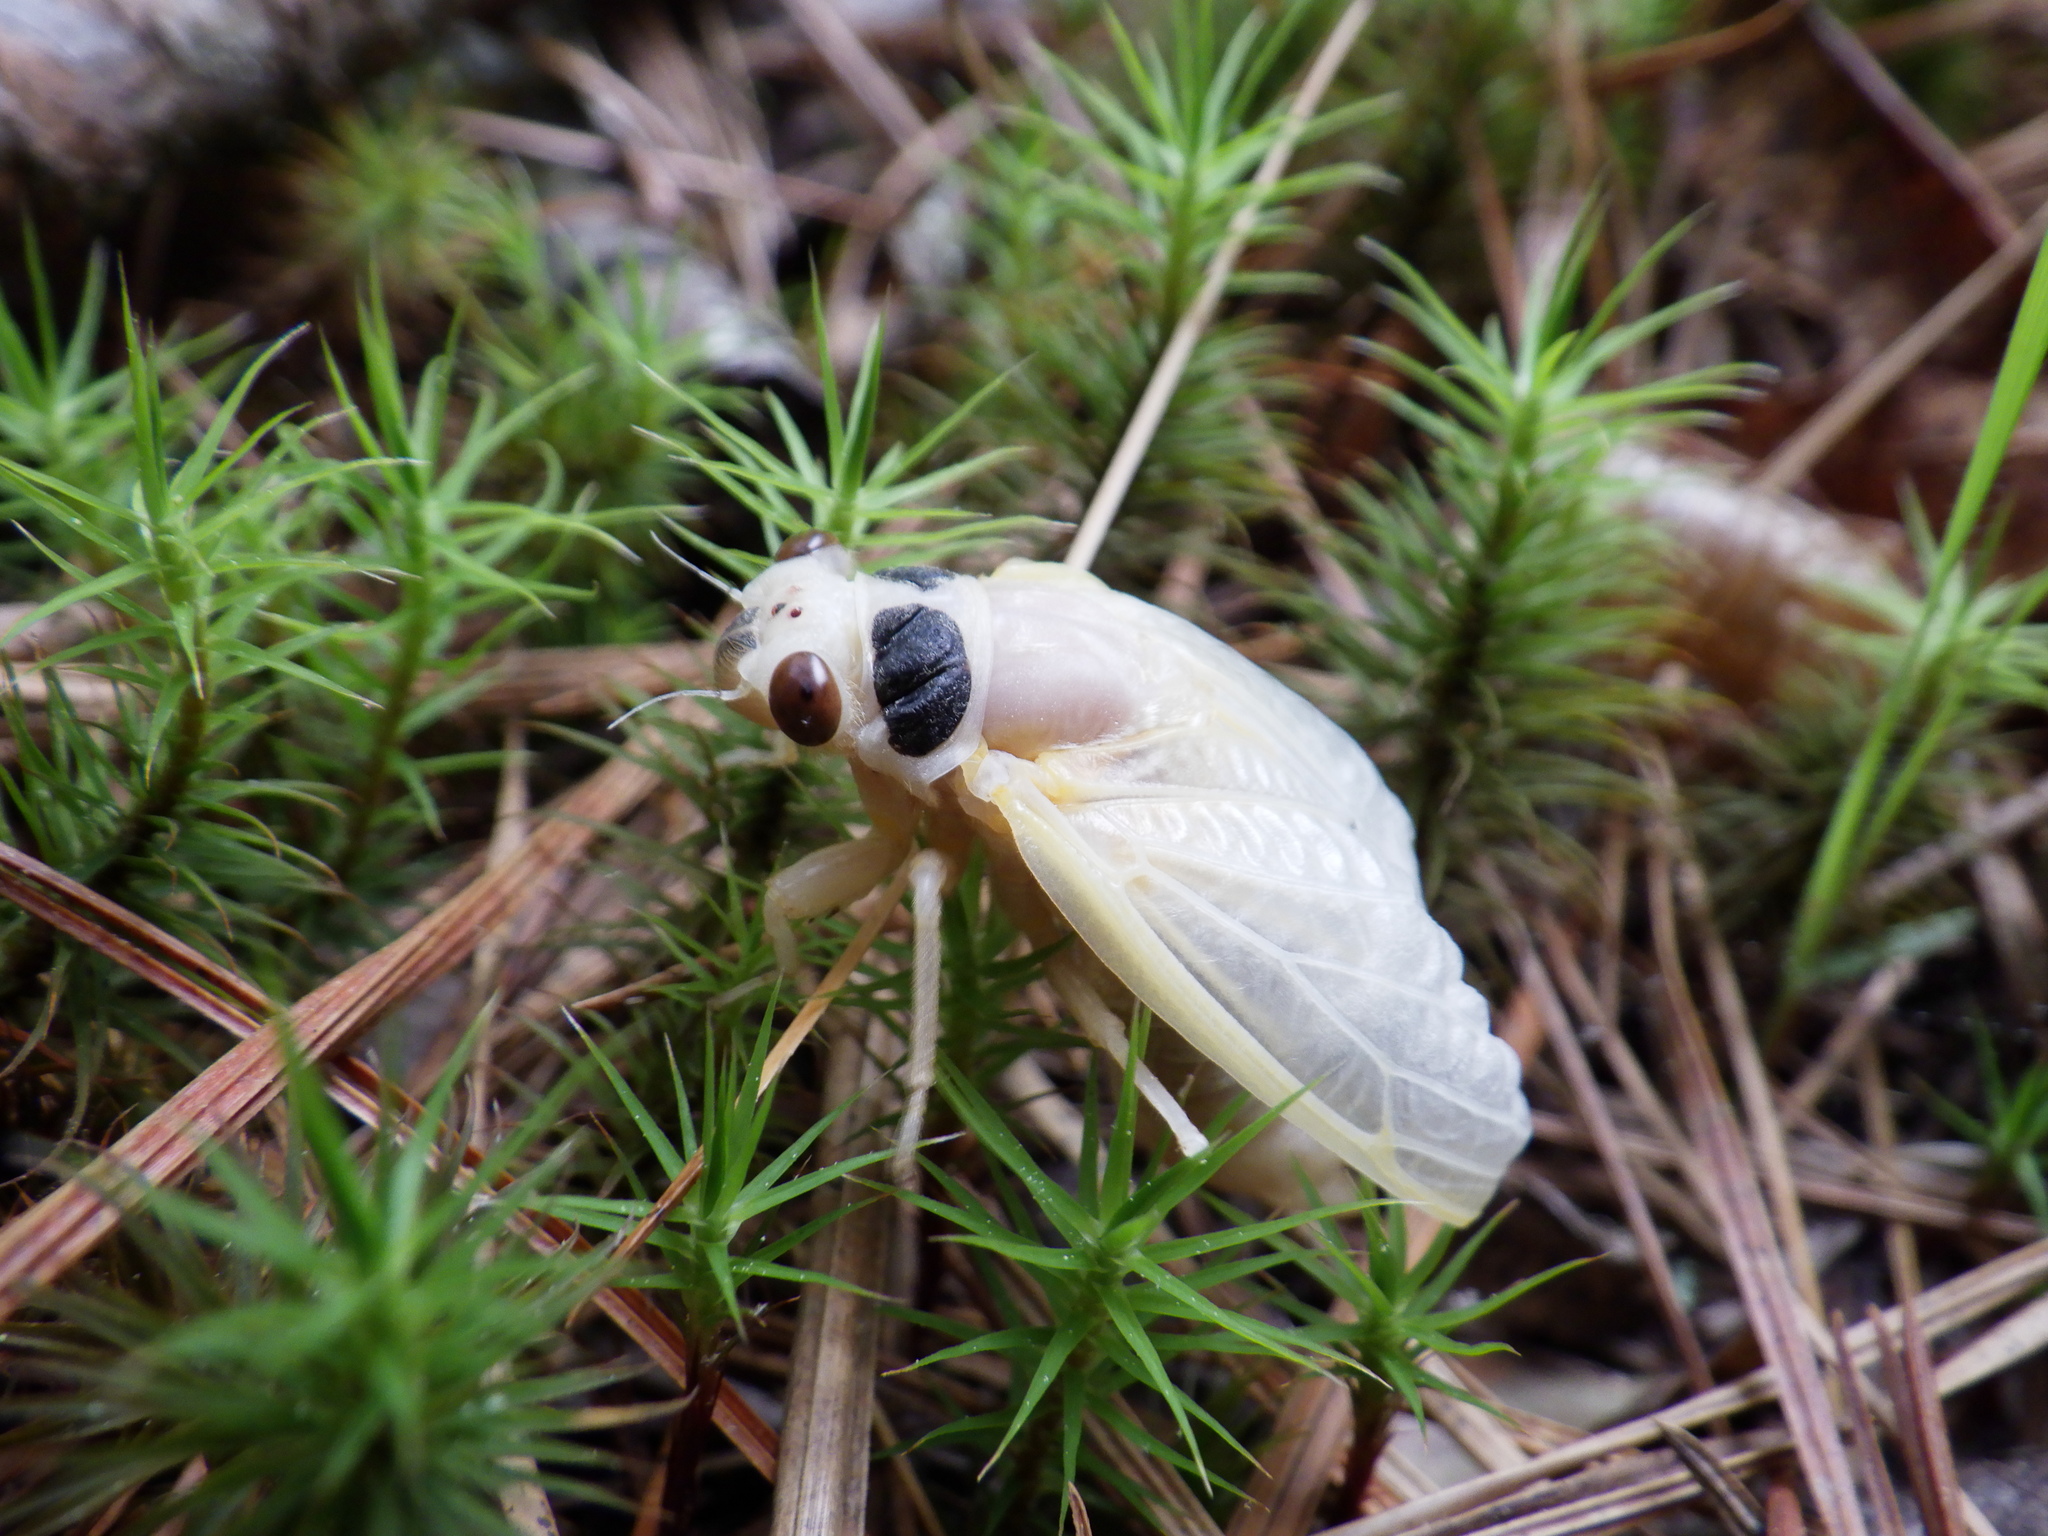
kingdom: Animalia
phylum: Arthropoda
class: Insecta
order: Hemiptera
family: Cicadidae
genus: Magicicada
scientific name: Magicicada
